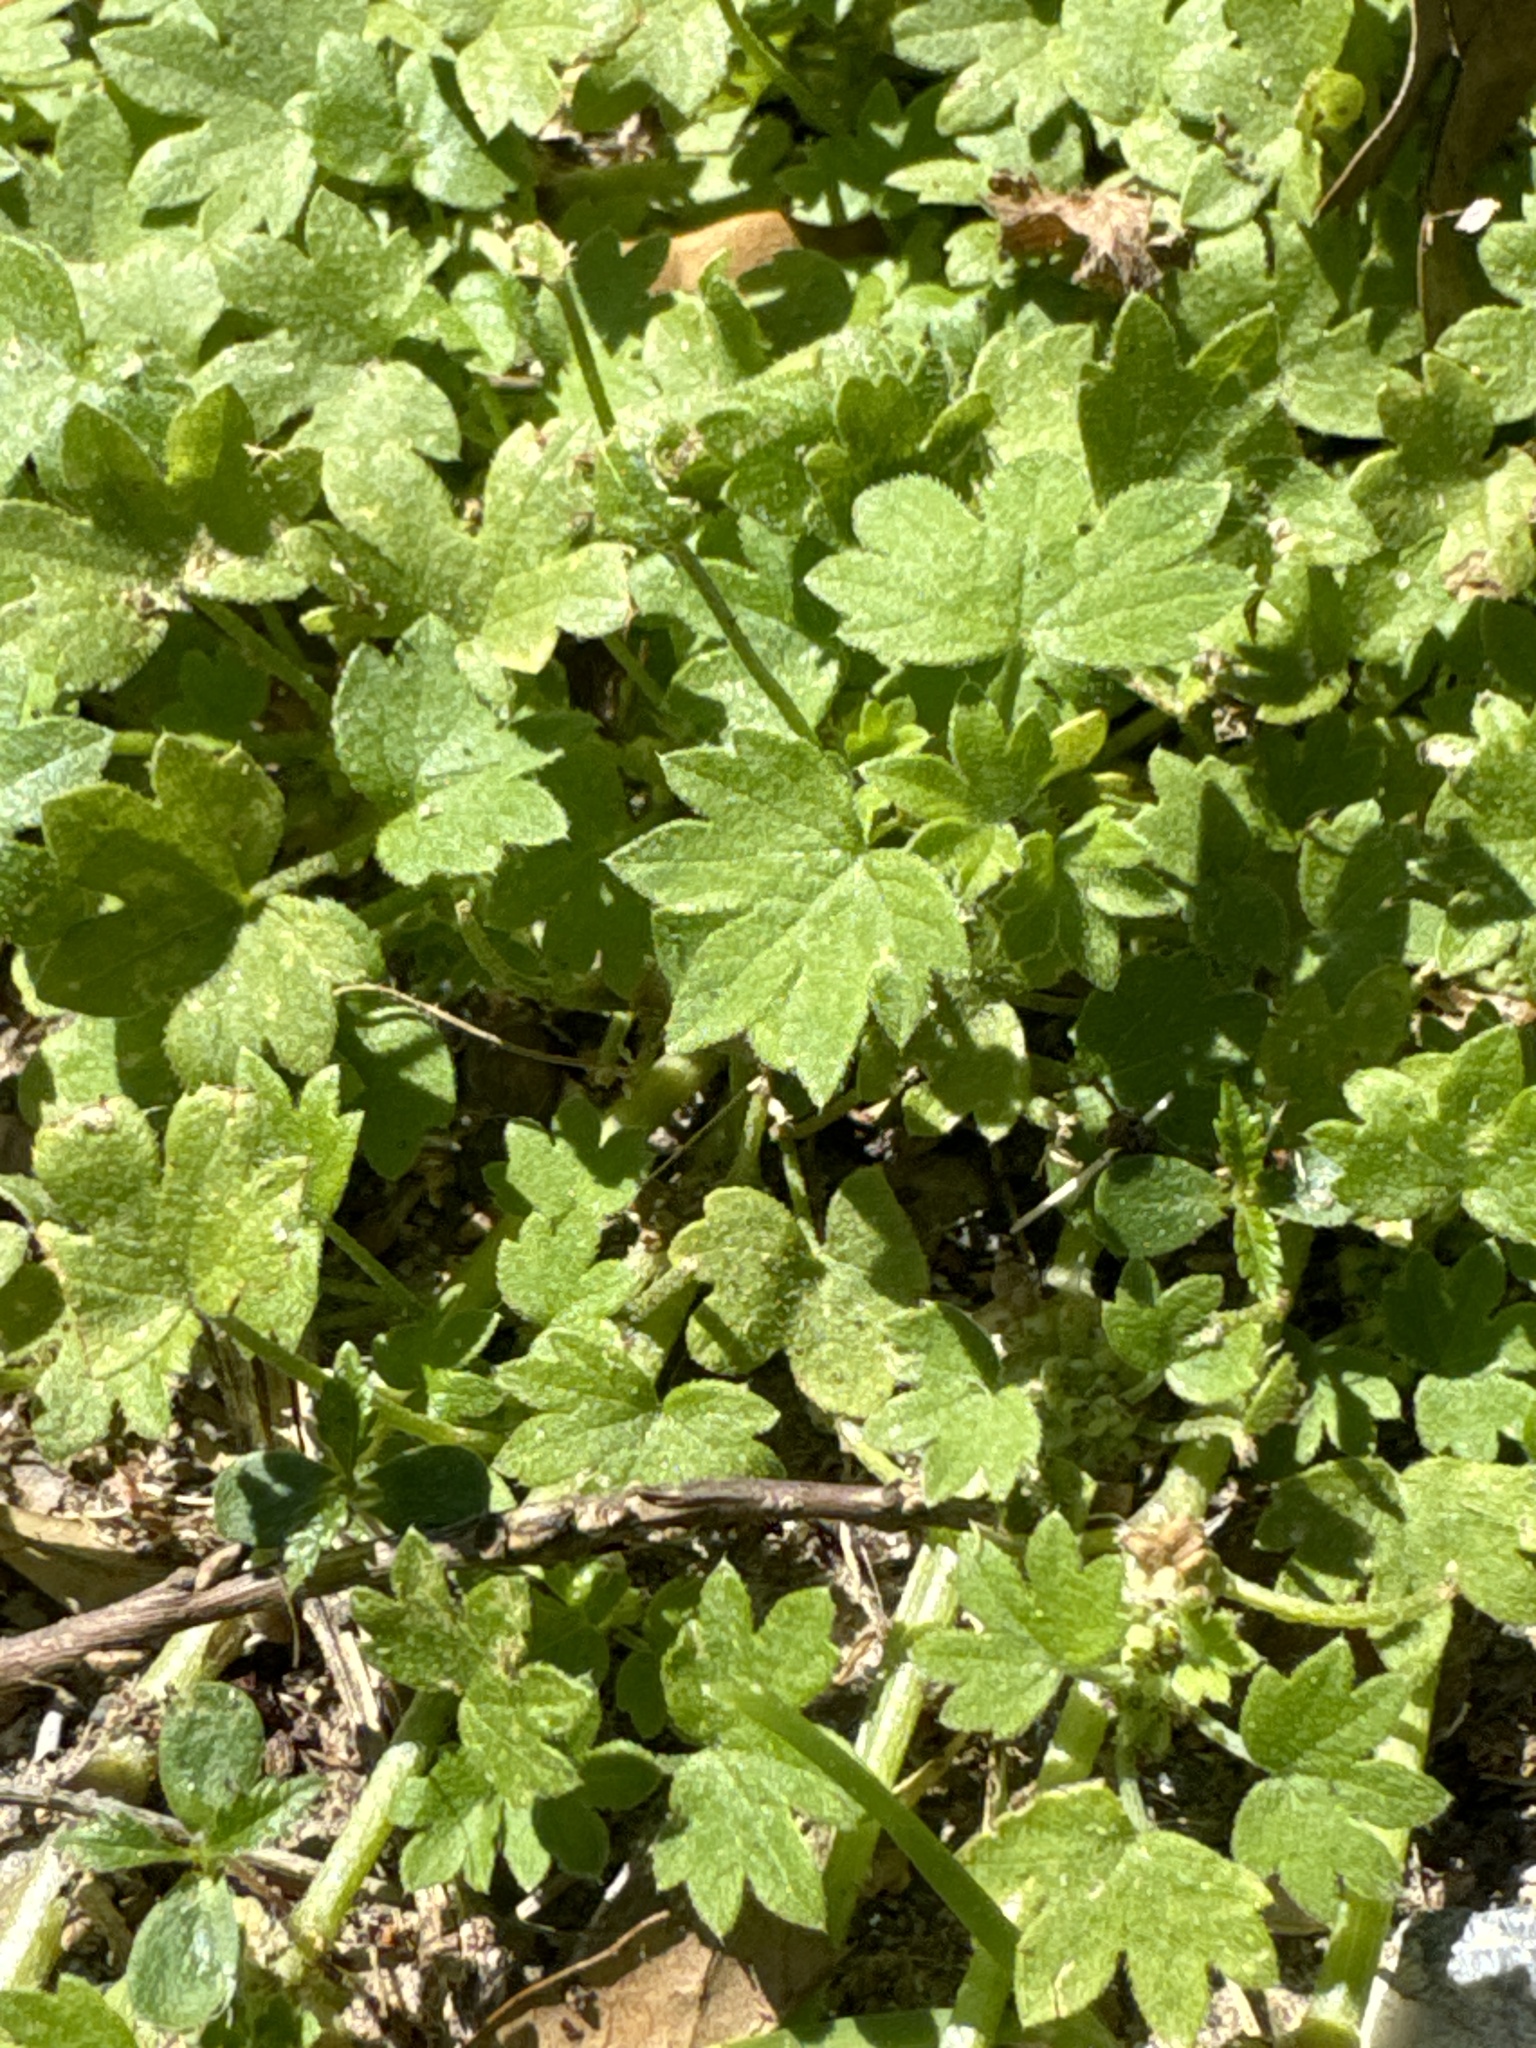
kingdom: Plantae
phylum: Tracheophyta
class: Magnoliopsida
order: Apiales
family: Apiaceae
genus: Bowlesia
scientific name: Bowlesia incana
